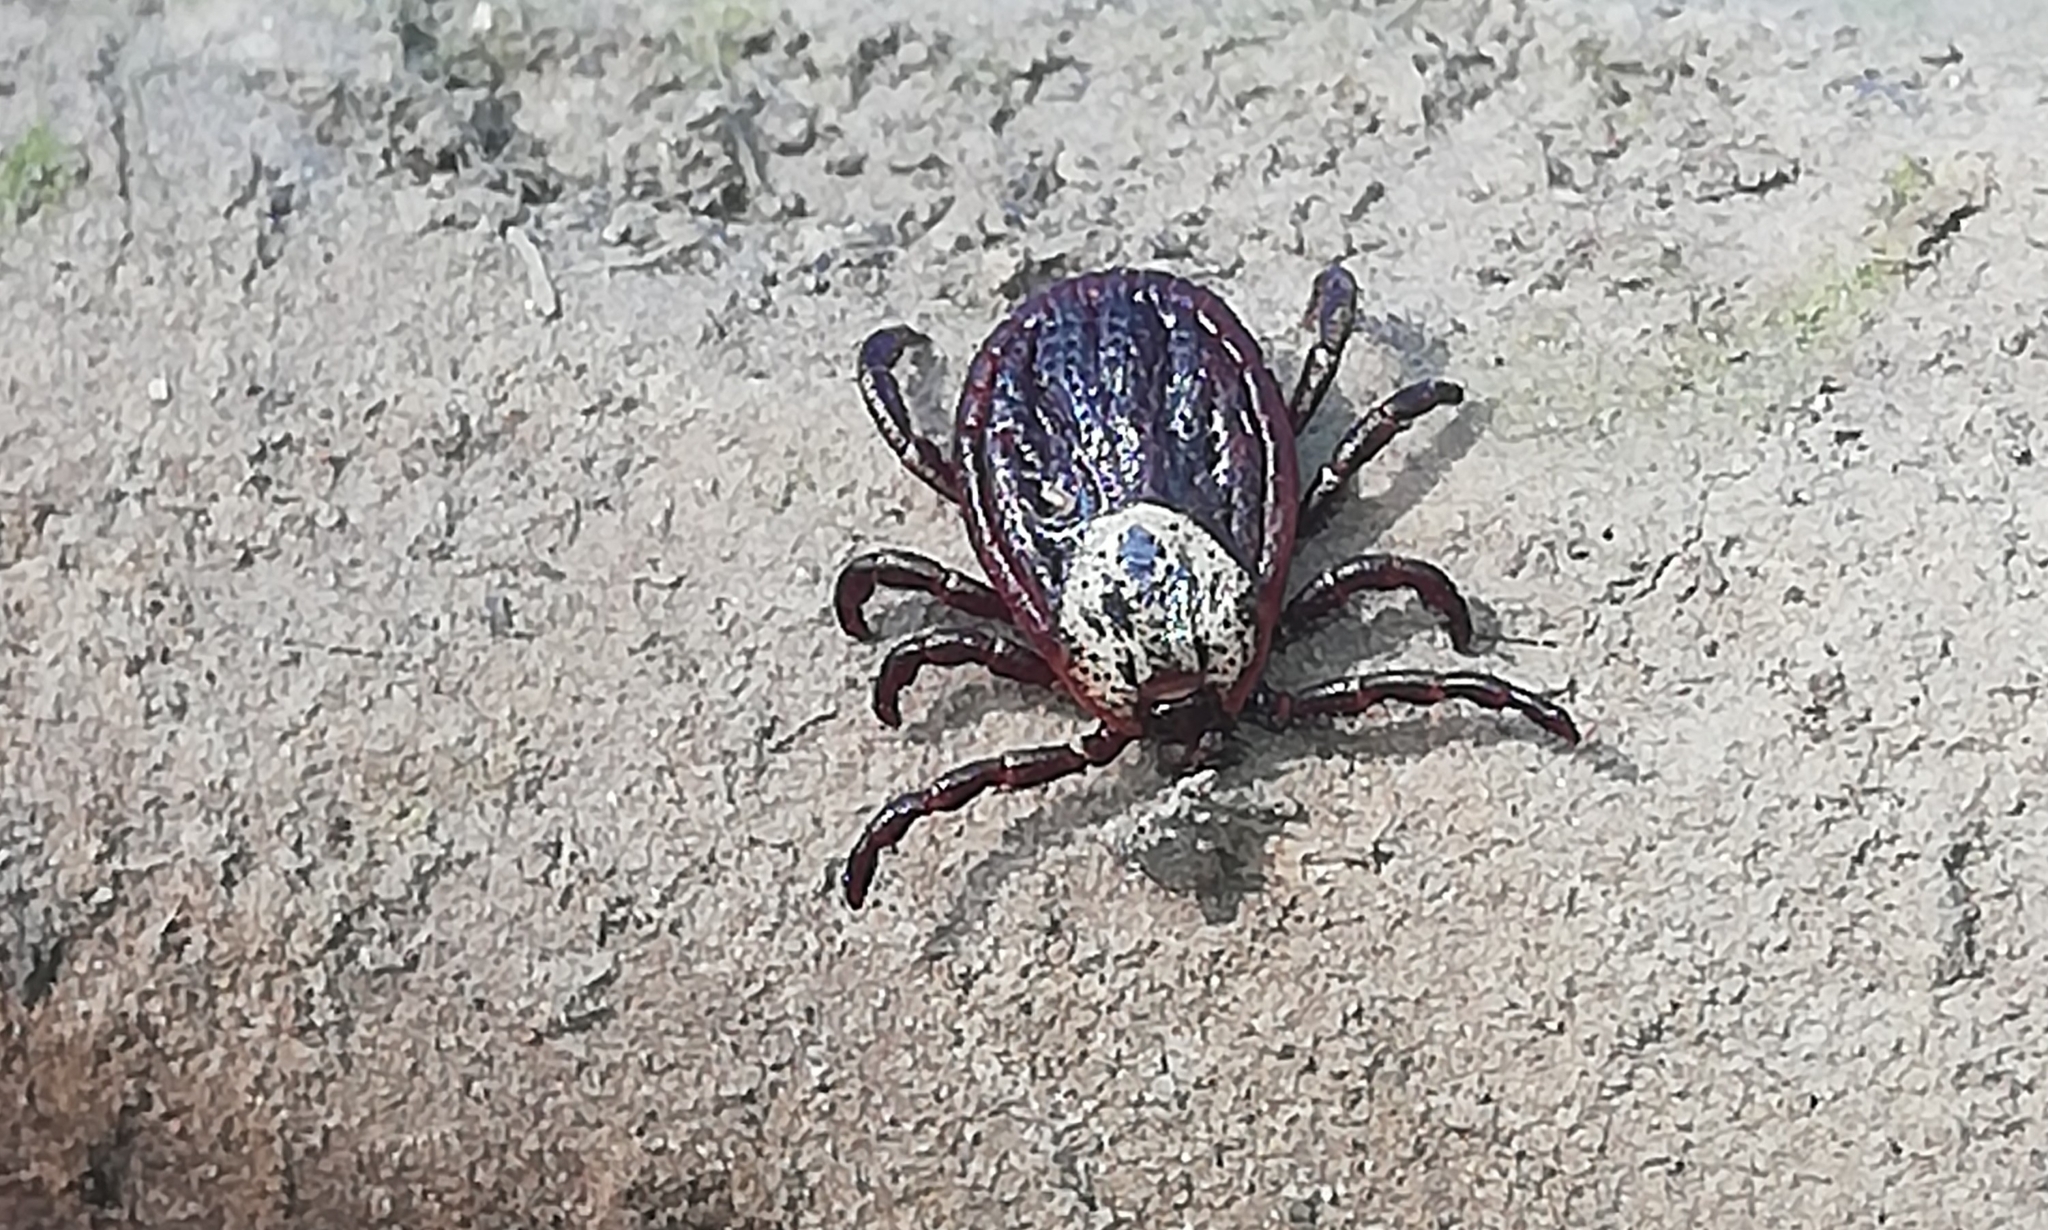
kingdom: Animalia
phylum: Arthropoda
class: Arachnida
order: Ixodida
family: Ixodidae
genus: Dermacentor
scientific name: Dermacentor reticulatus
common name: Ornate cow tick
